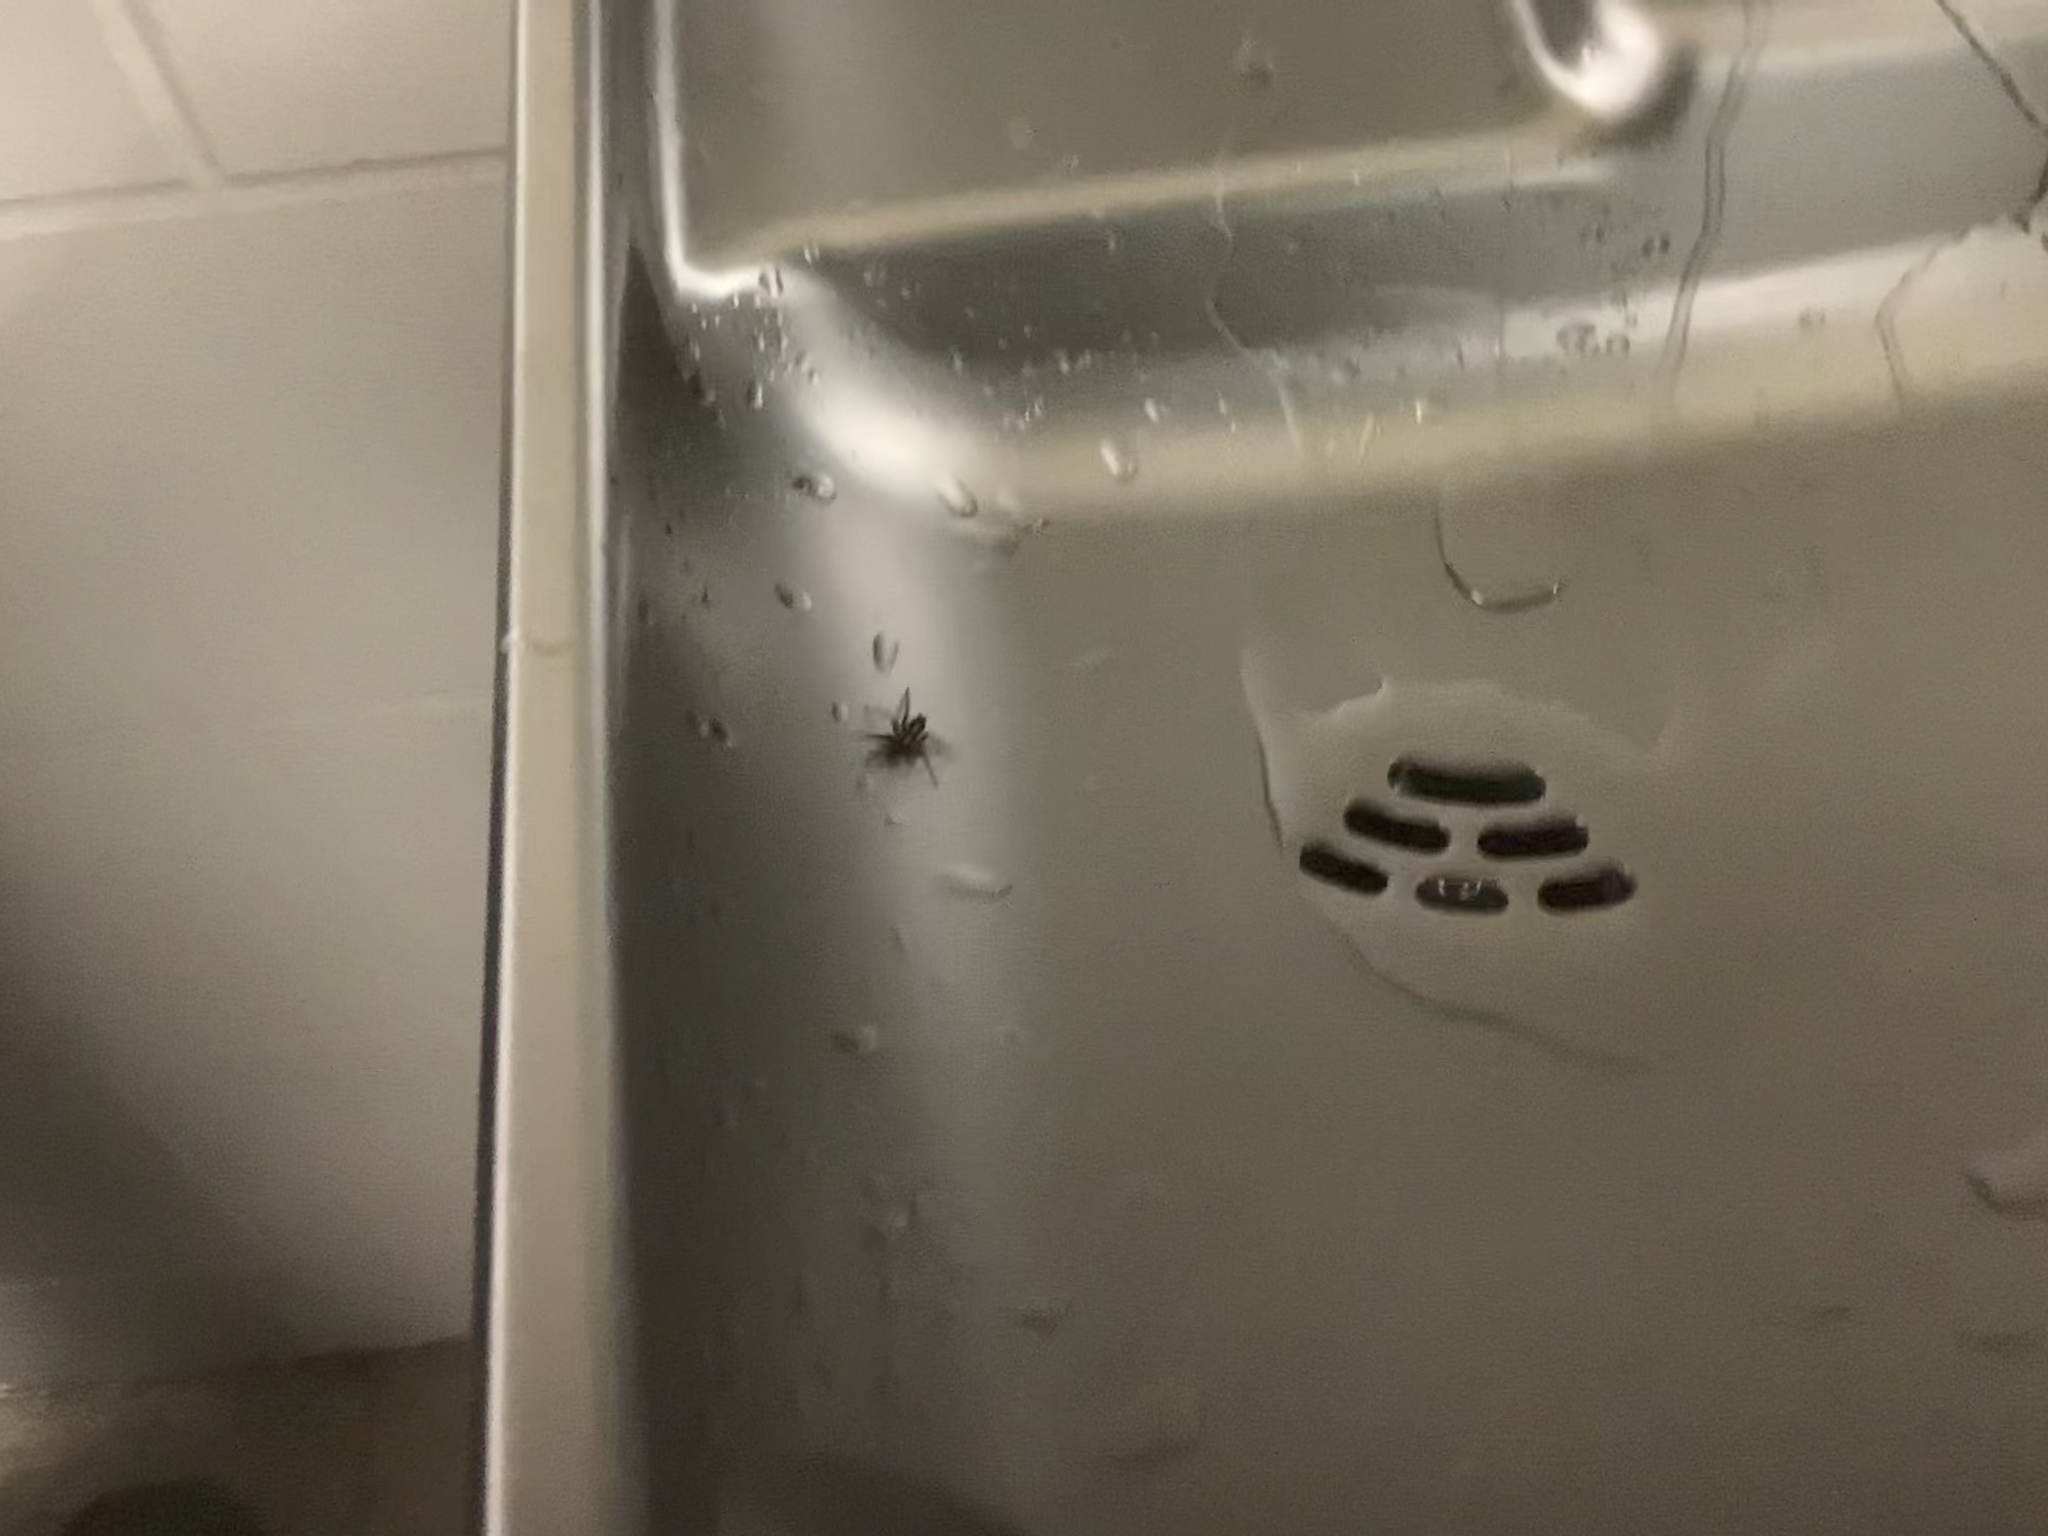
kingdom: Animalia
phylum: Arthropoda
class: Arachnida
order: Araneae
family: Gnaphosidae
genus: Herpyllus
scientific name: Herpyllus ecclesiasticus
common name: Eastern parson spider
